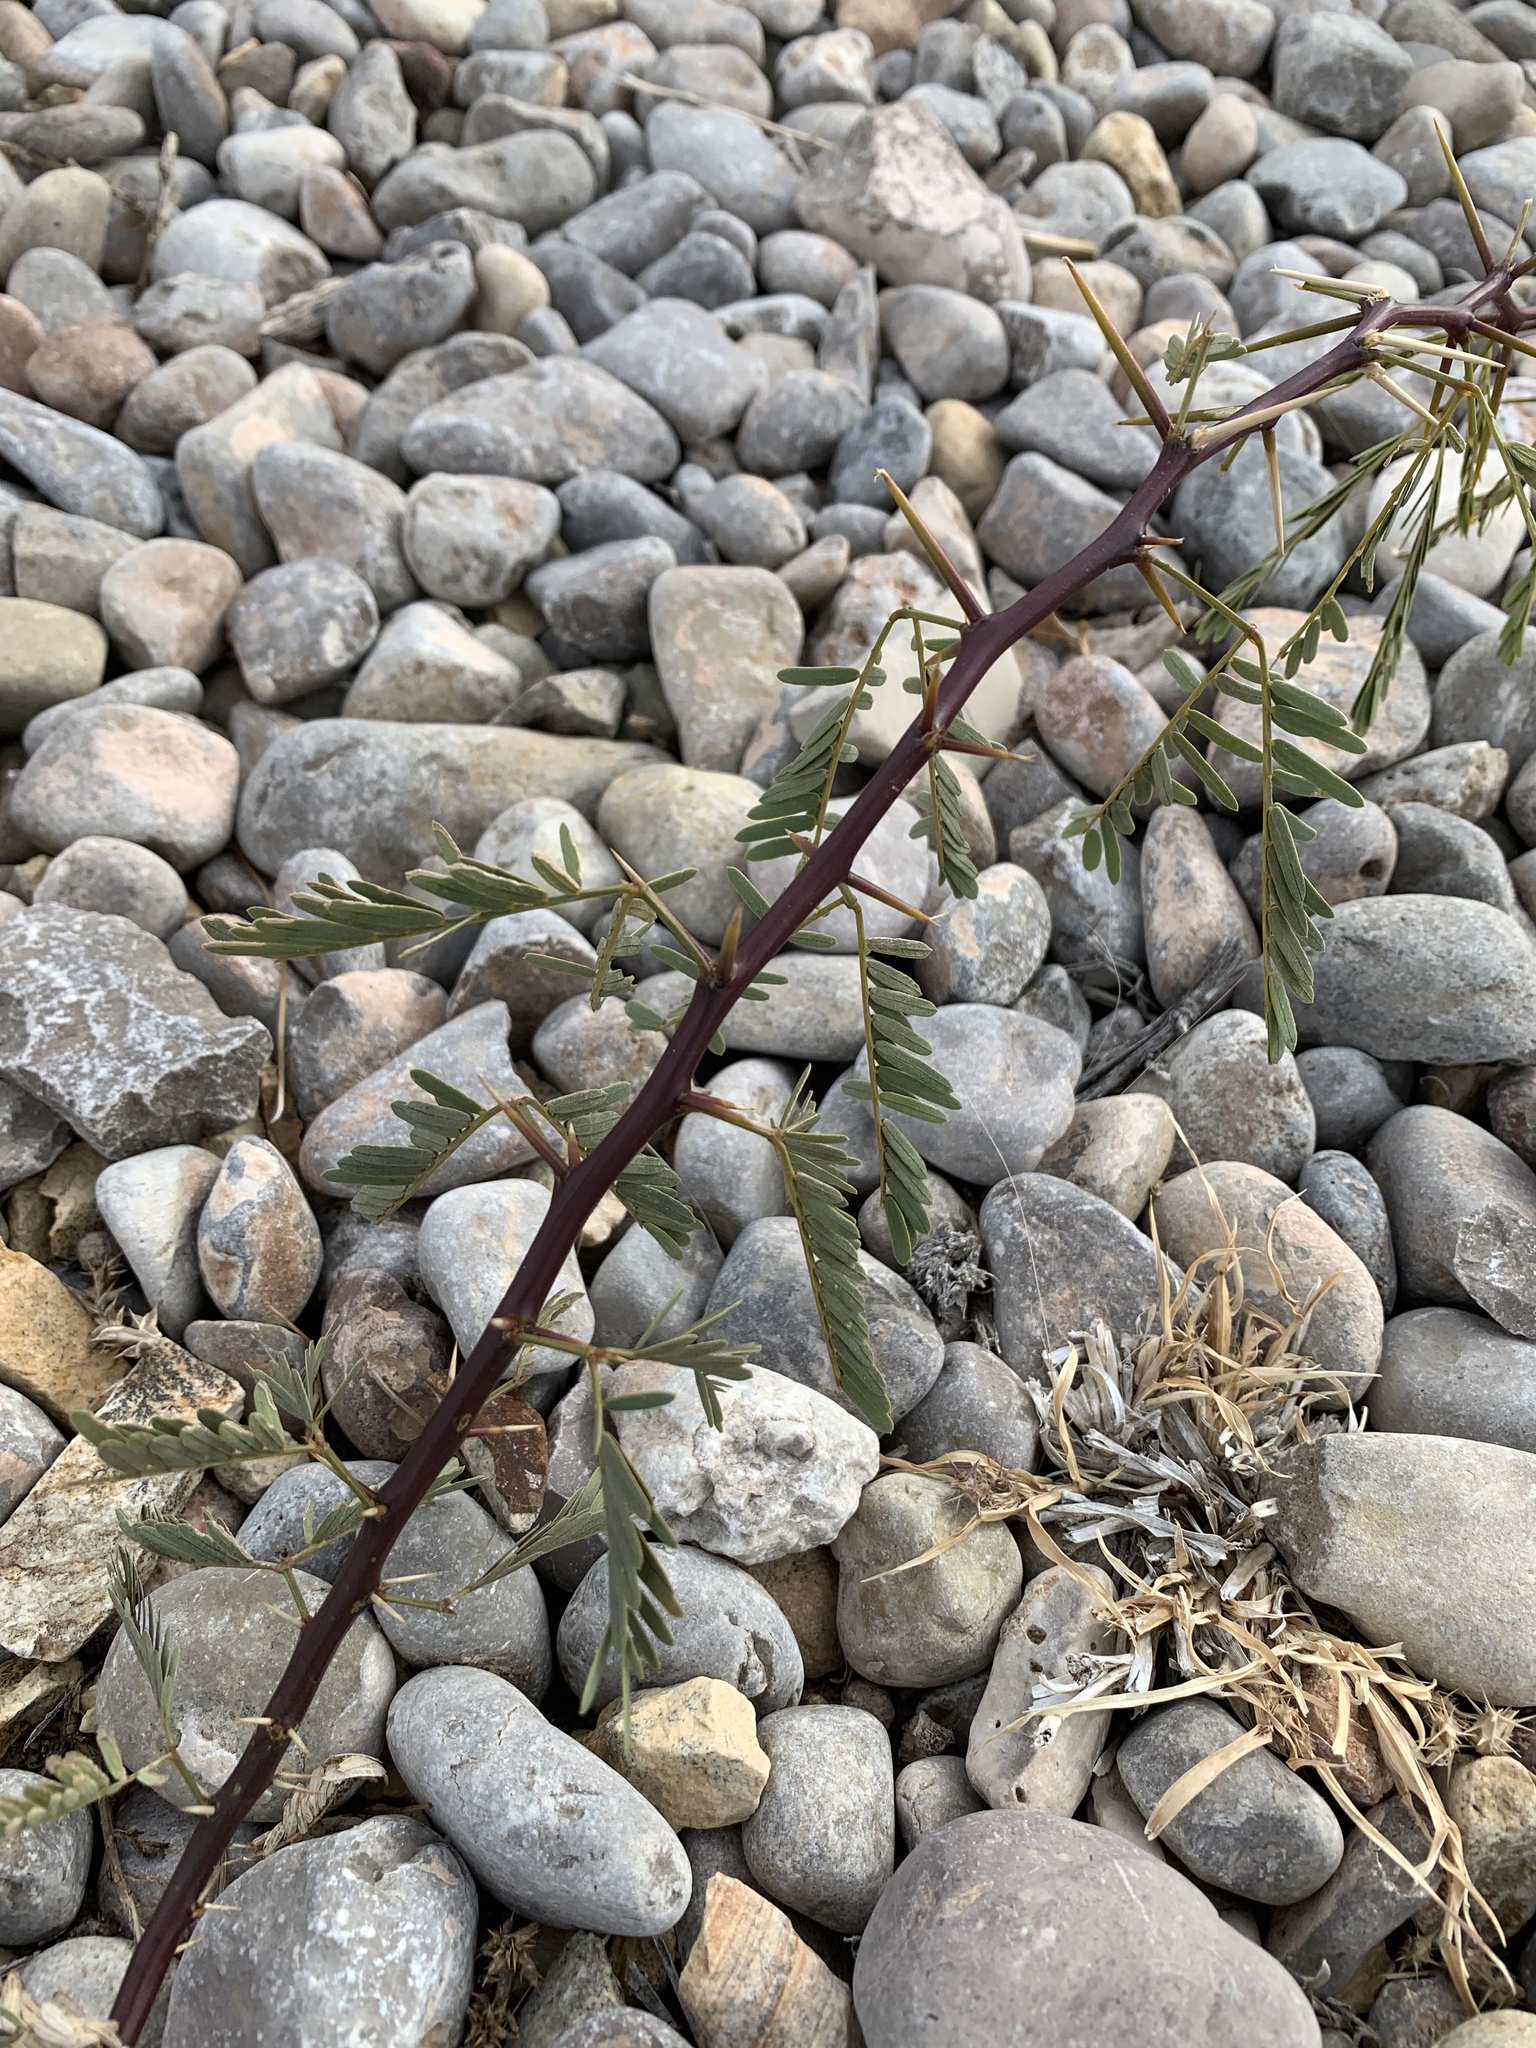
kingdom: Plantae
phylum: Tracheophyta
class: Magnoliopsida
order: Fabales
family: Fabaceae
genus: Prosopis
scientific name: Prosopis glandulosa
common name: Honey mesquite
